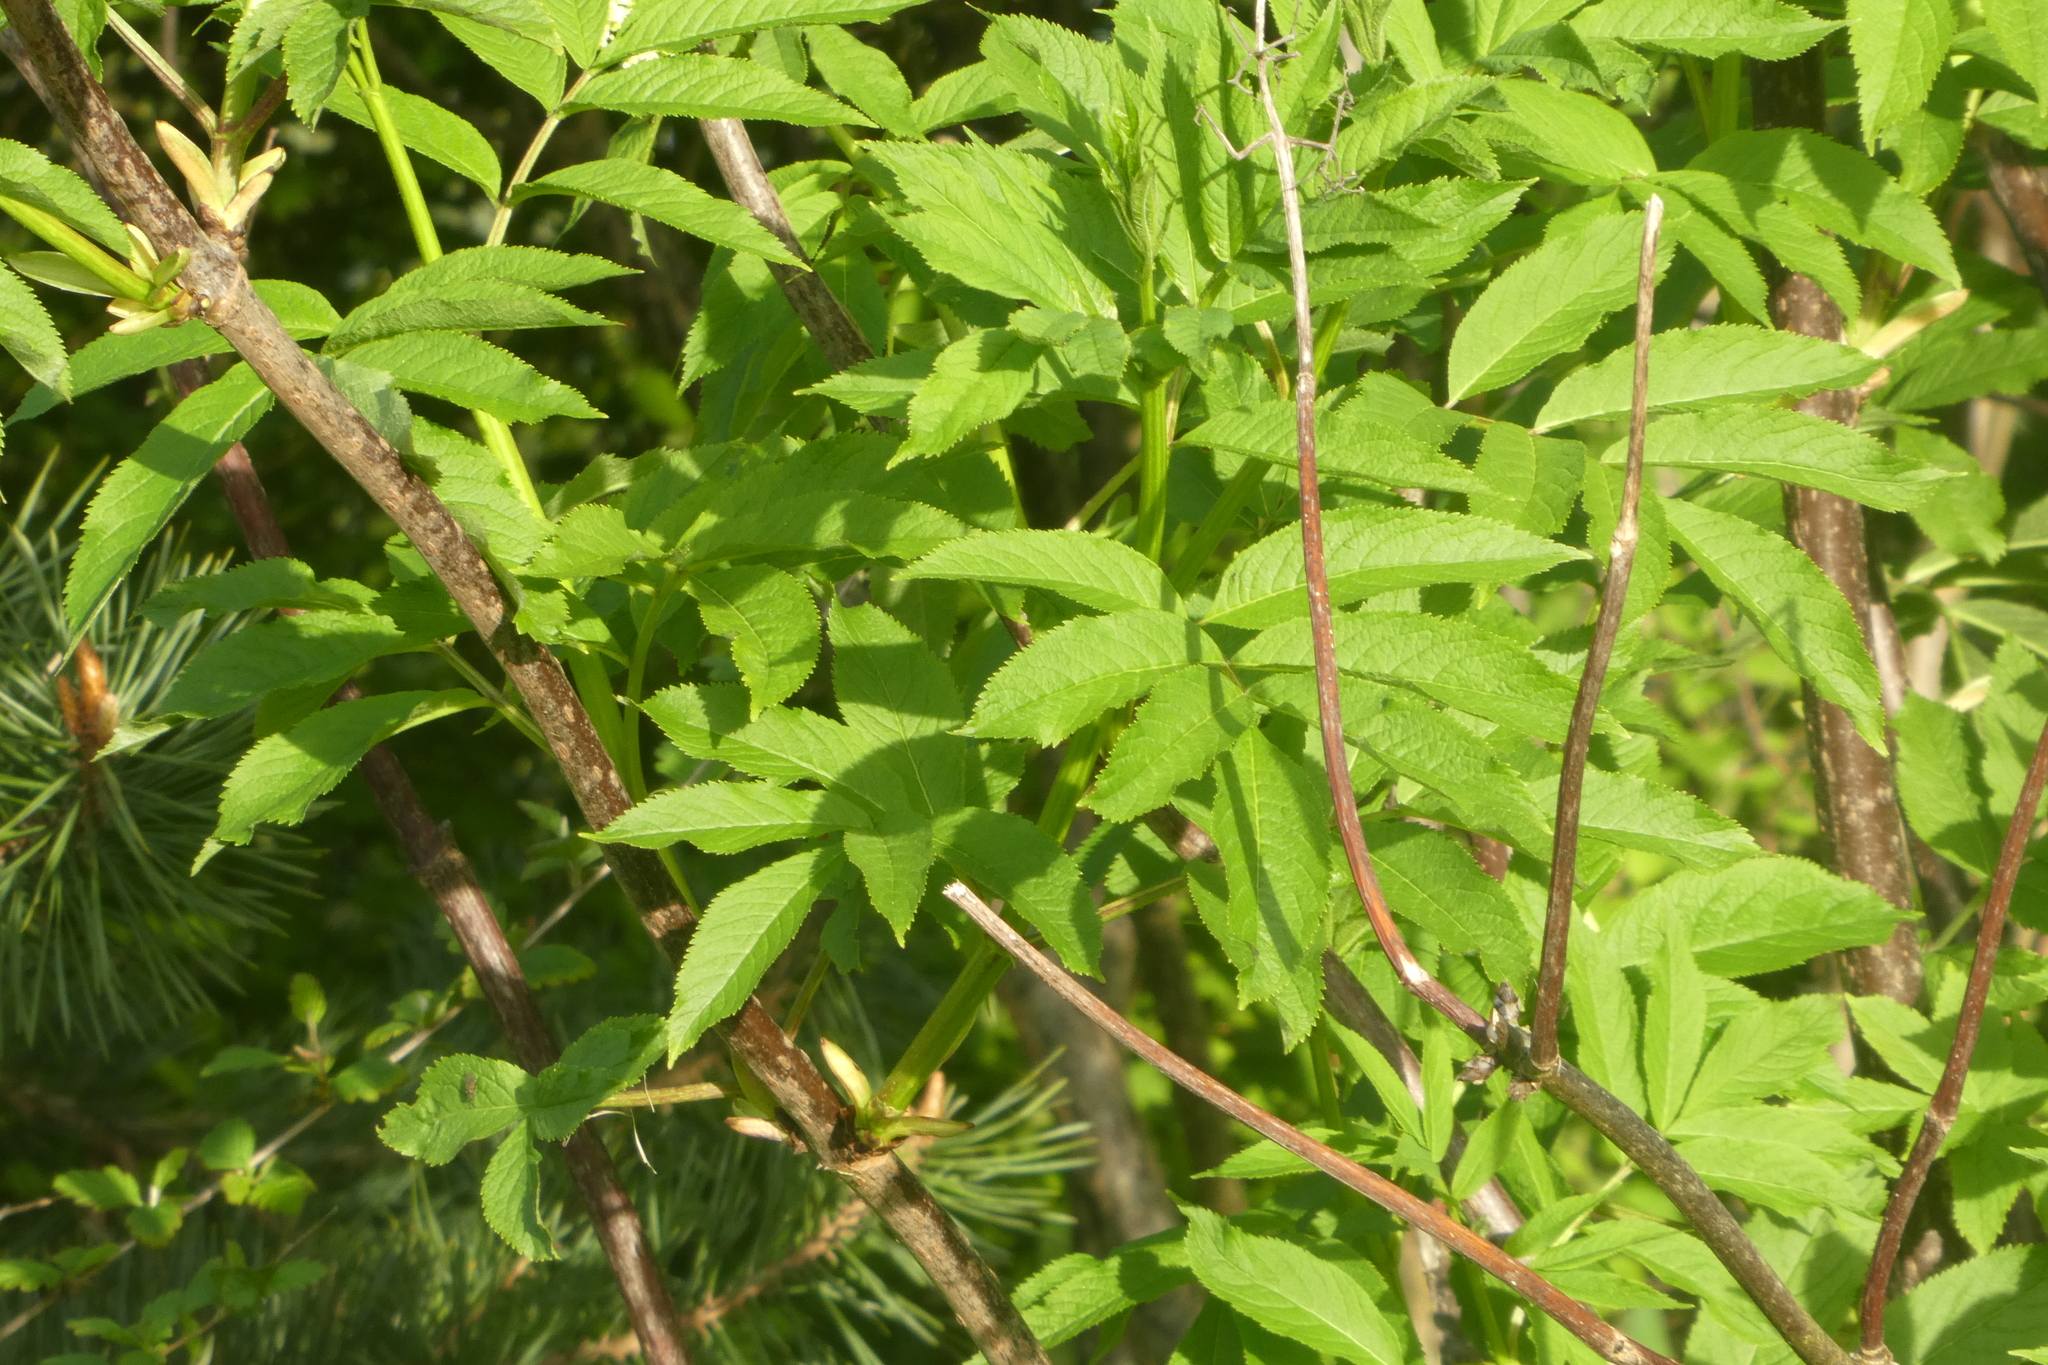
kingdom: Plantae
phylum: Tracheophyta
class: Magnoliopsida
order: Dipsacales
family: Viburnaceae
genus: Sambucus
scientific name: Sambucus racemosa
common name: Red-berried elder
